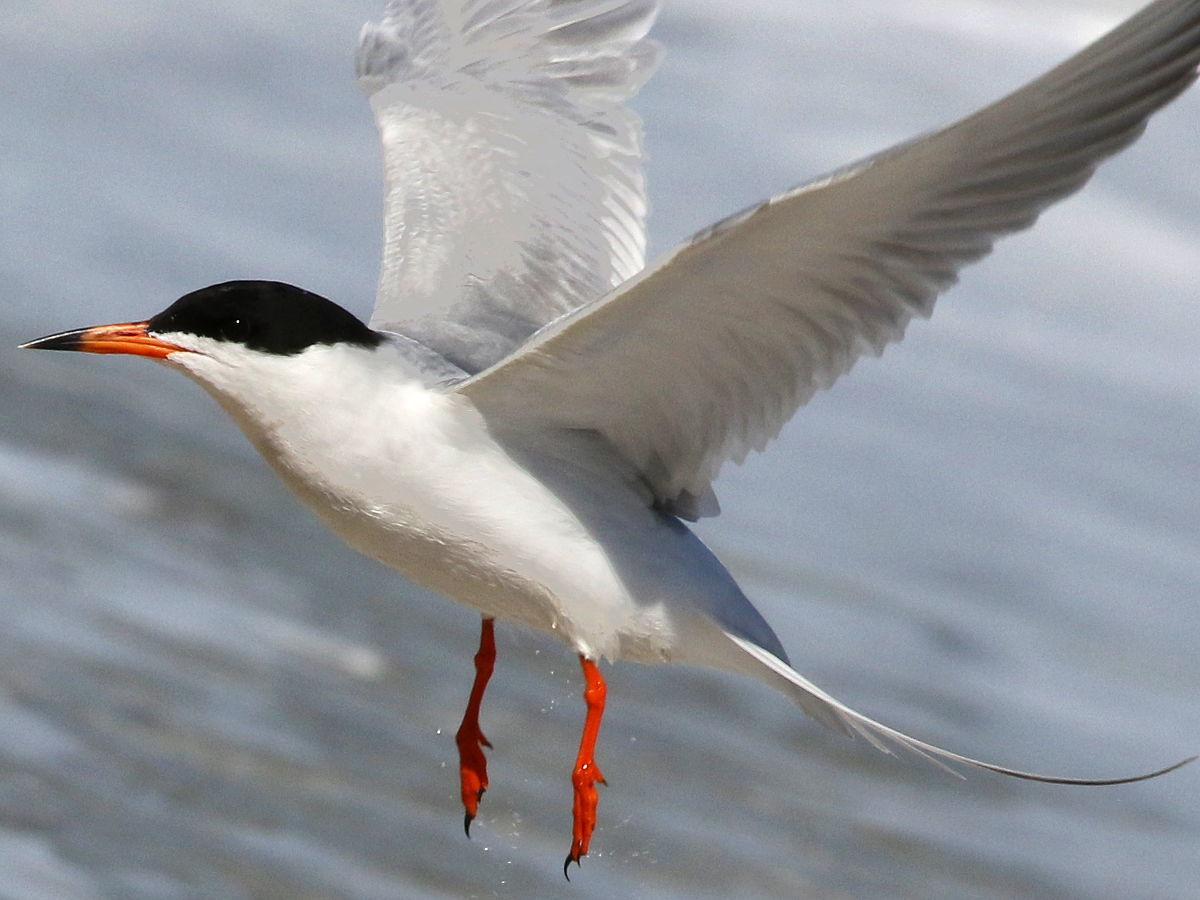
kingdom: Animalia
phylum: Chordata
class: Aves
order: Charadriiformes
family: Laridae
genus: Sterna
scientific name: Sterna forsteri
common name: Forster's tern
